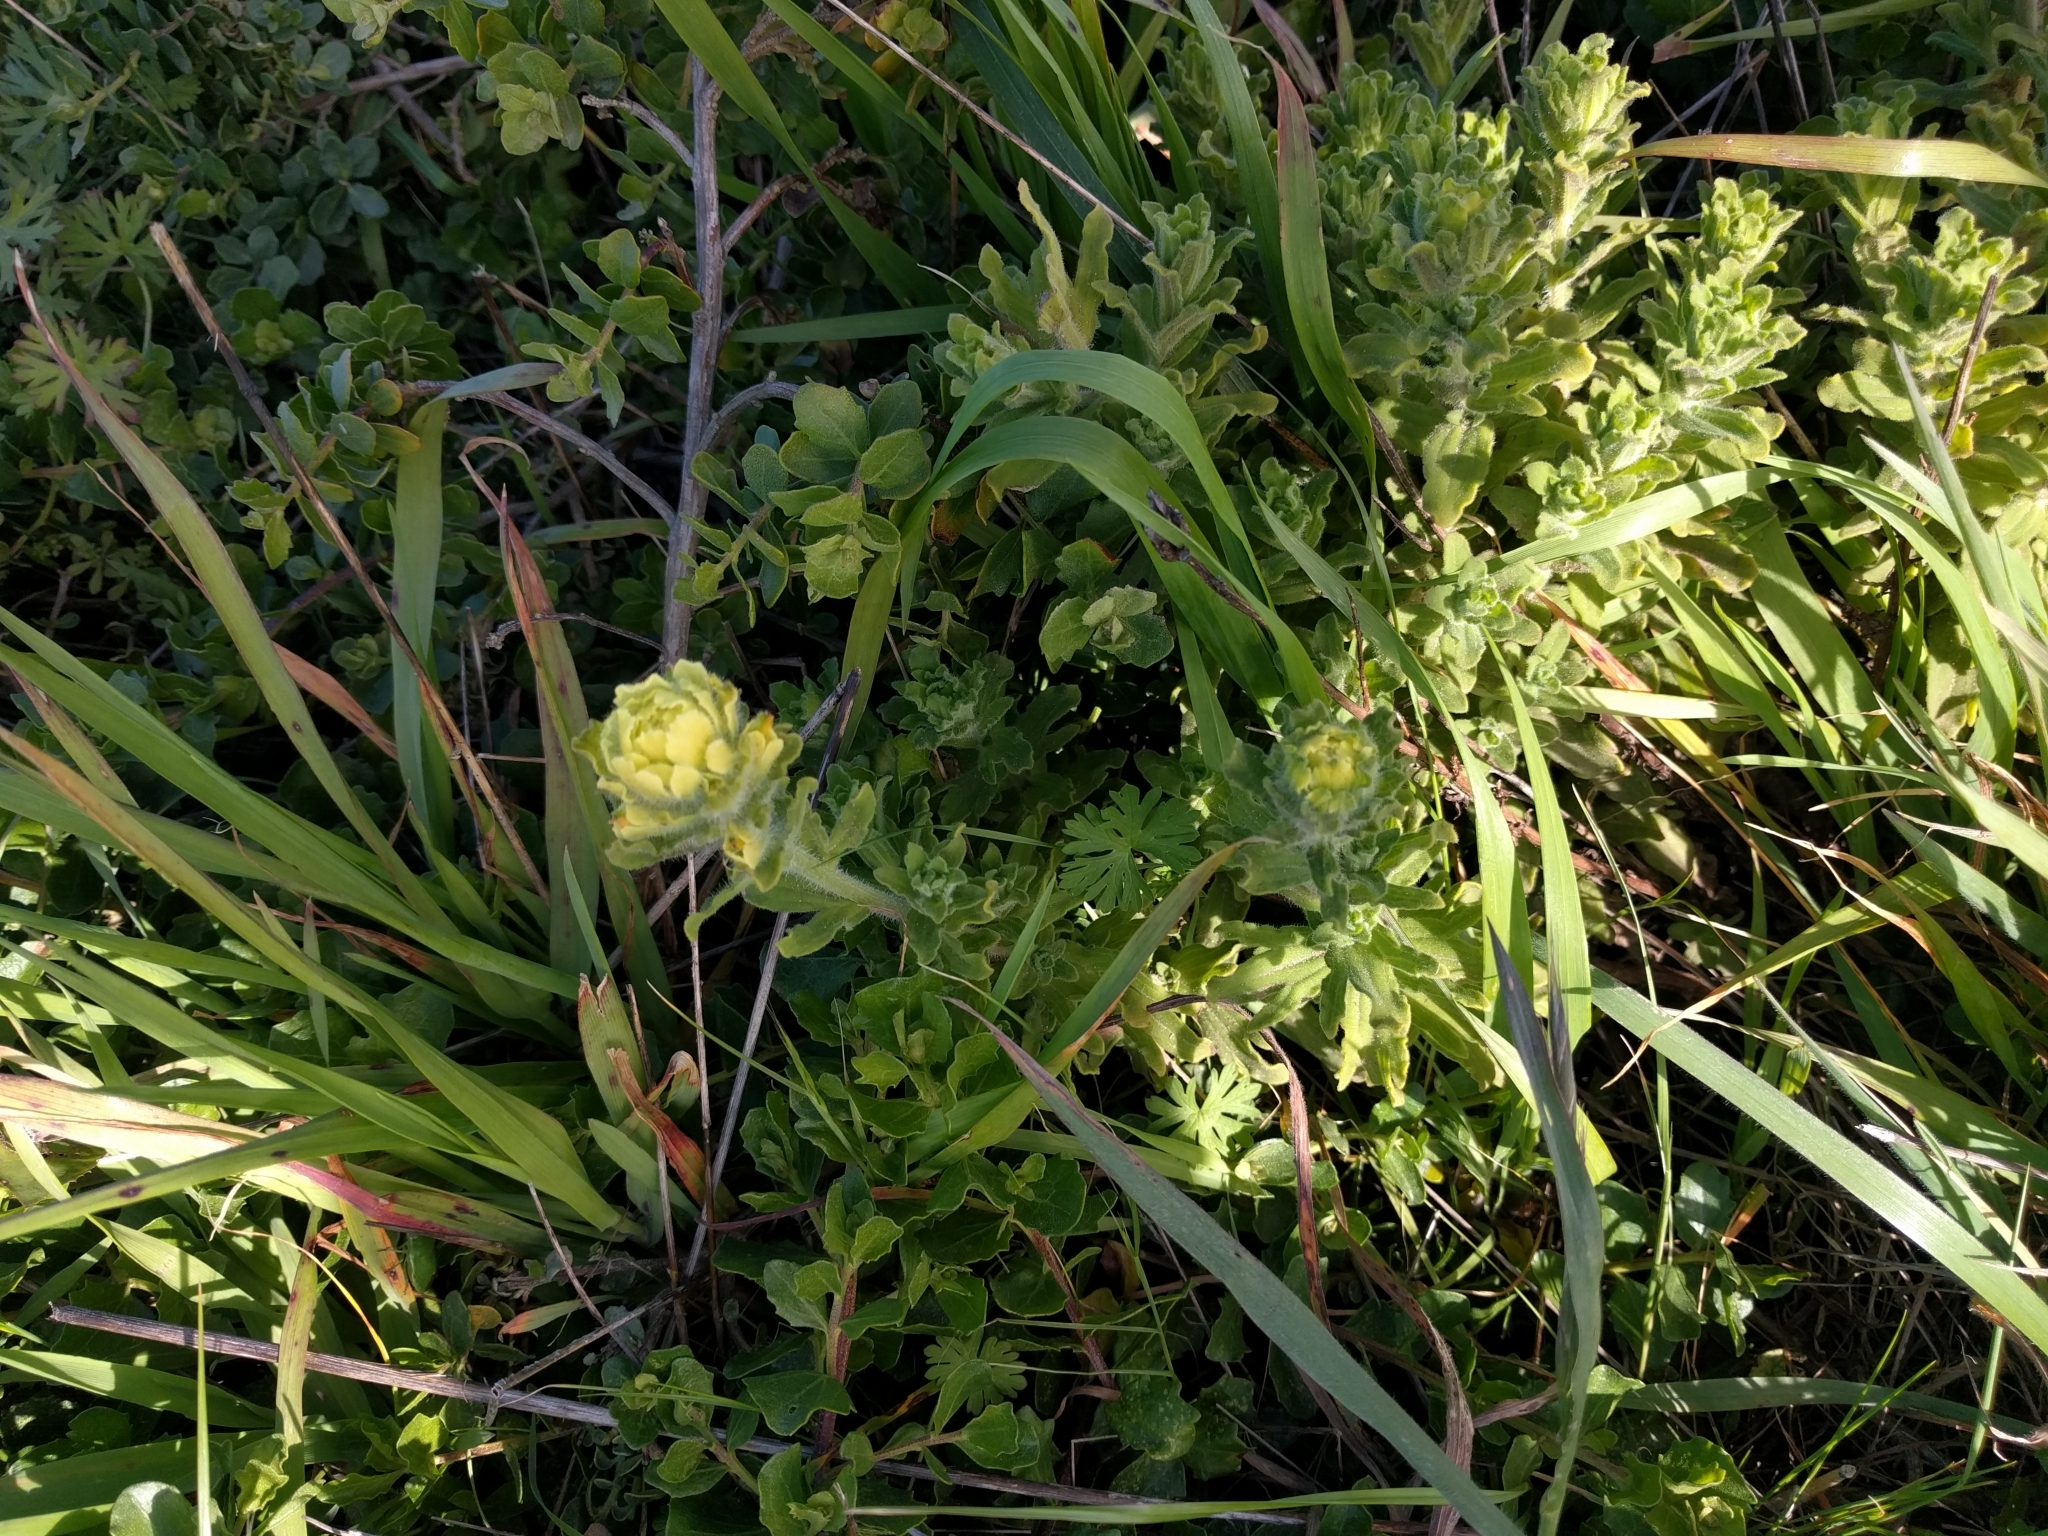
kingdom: Plantae
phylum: Tracheophyta
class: Magnoliopsida
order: Lamiales
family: Orobanchaceae
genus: Castilleja
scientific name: Castilleja wightii
